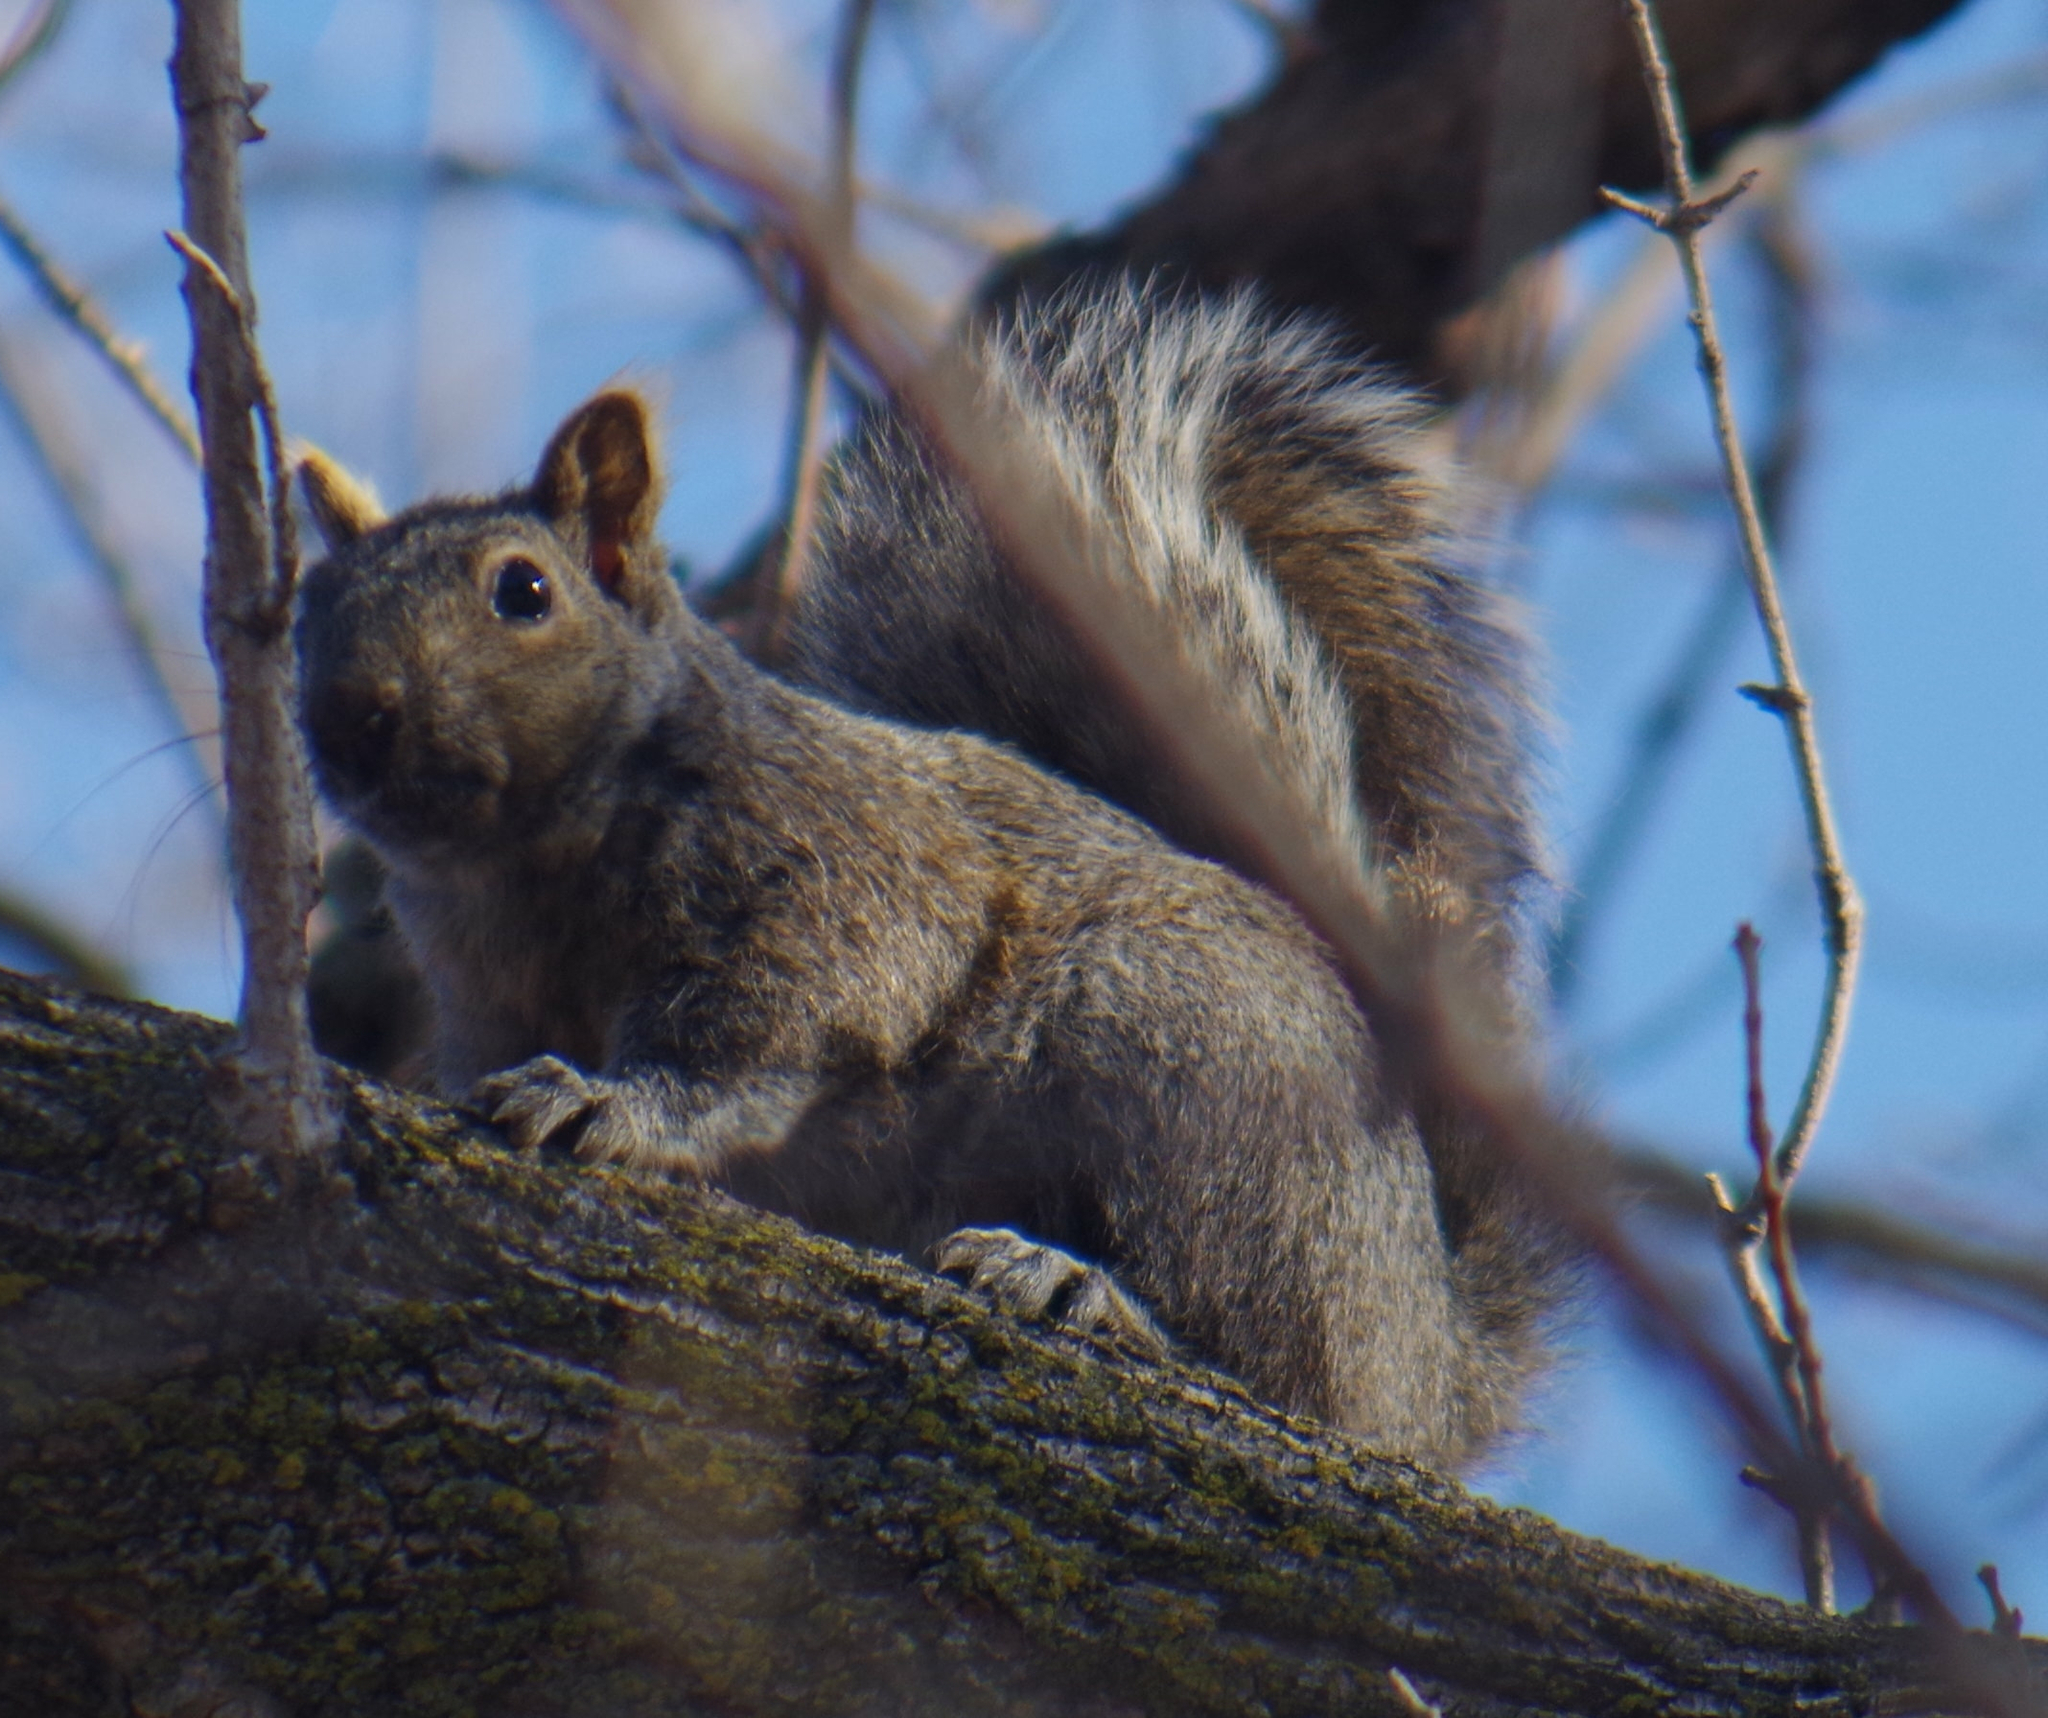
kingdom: Animalia
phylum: Chordata
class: Mammalia
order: Rodentia
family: Sciuridae
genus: Sciurus
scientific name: Sciurus carolinensis
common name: Eastern gray squirrel
